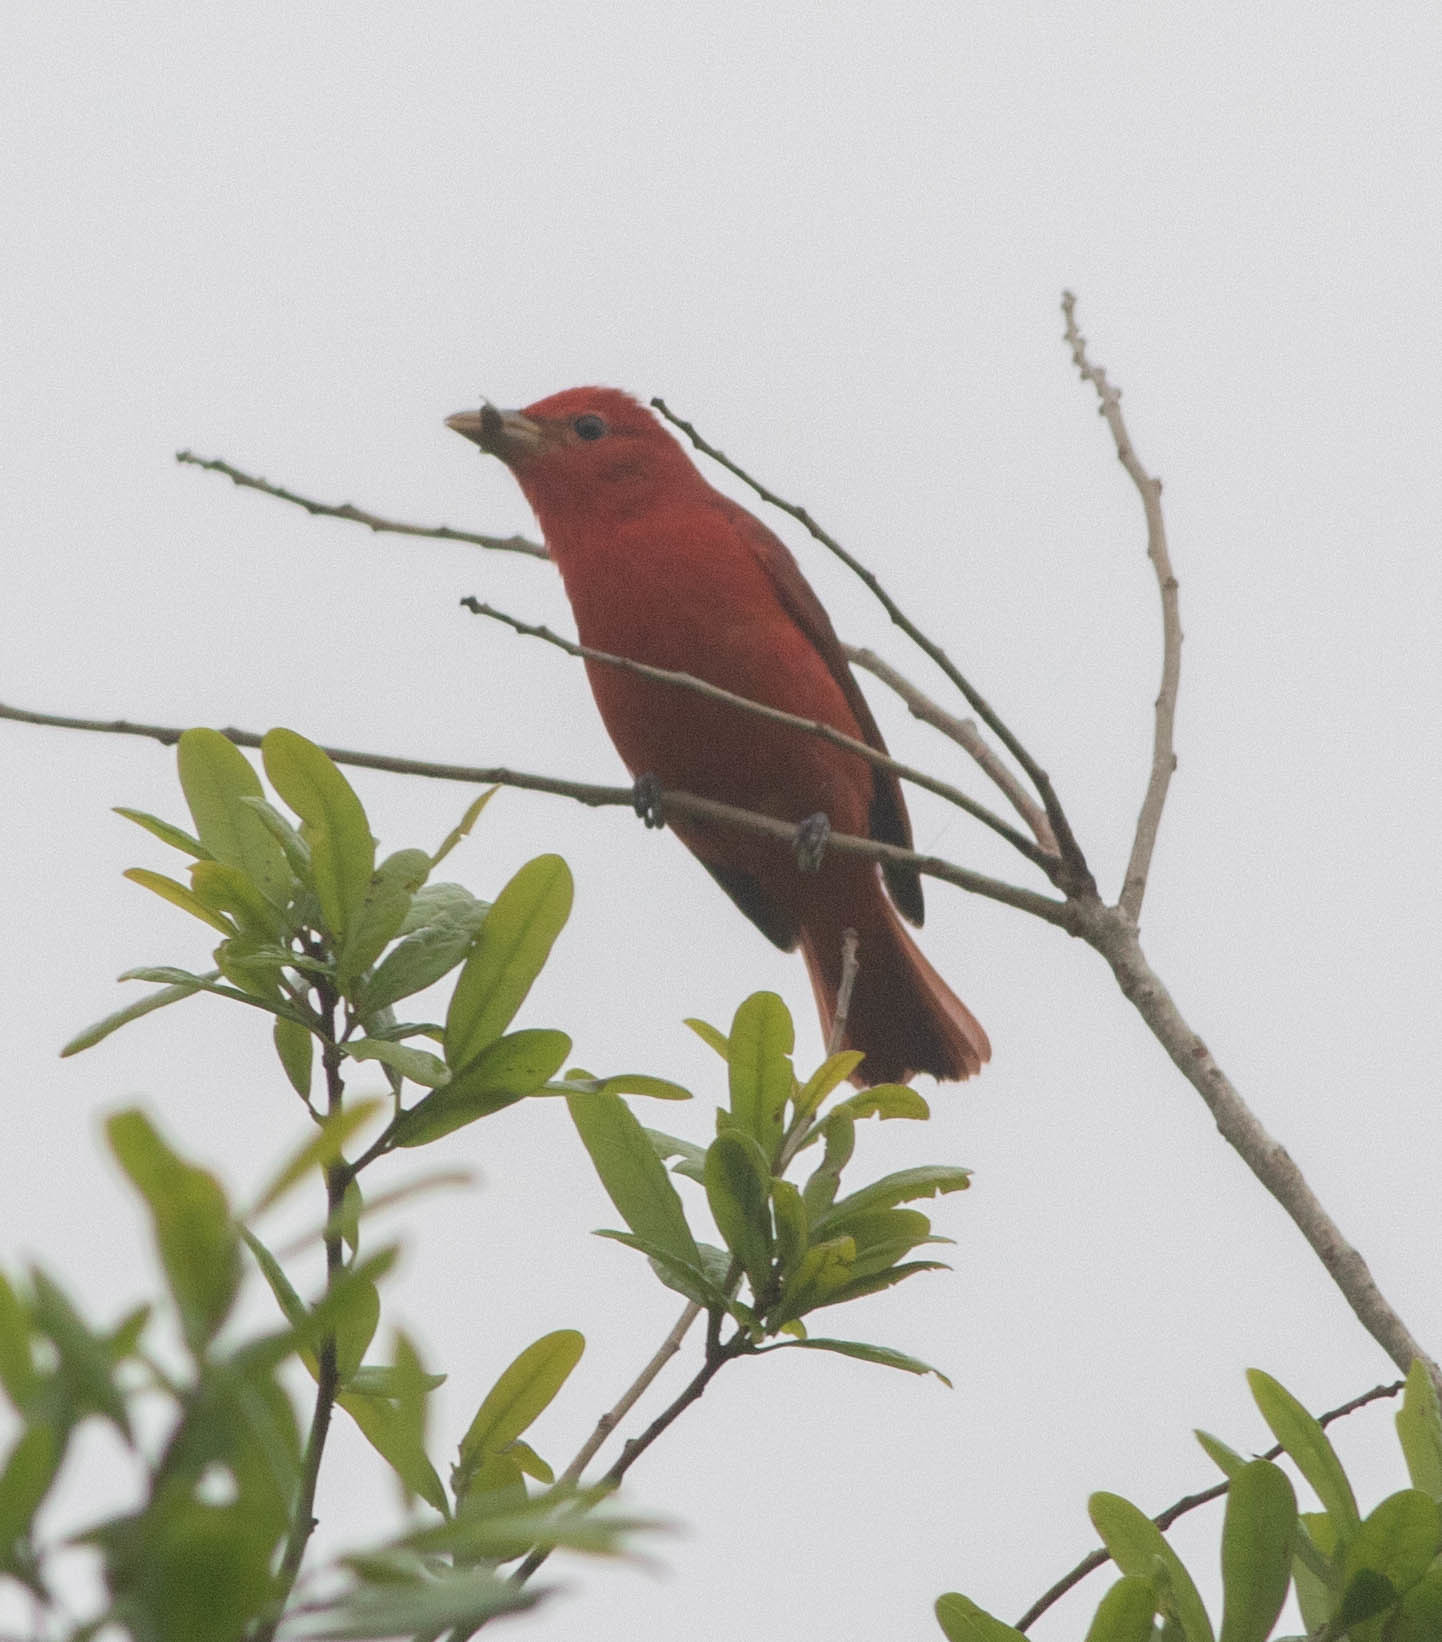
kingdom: Animalia
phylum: Chordata
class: Aves
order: Passeriformes
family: Cardinalidae
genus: Piranga
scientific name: Piranga rubra
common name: Summer tanager
